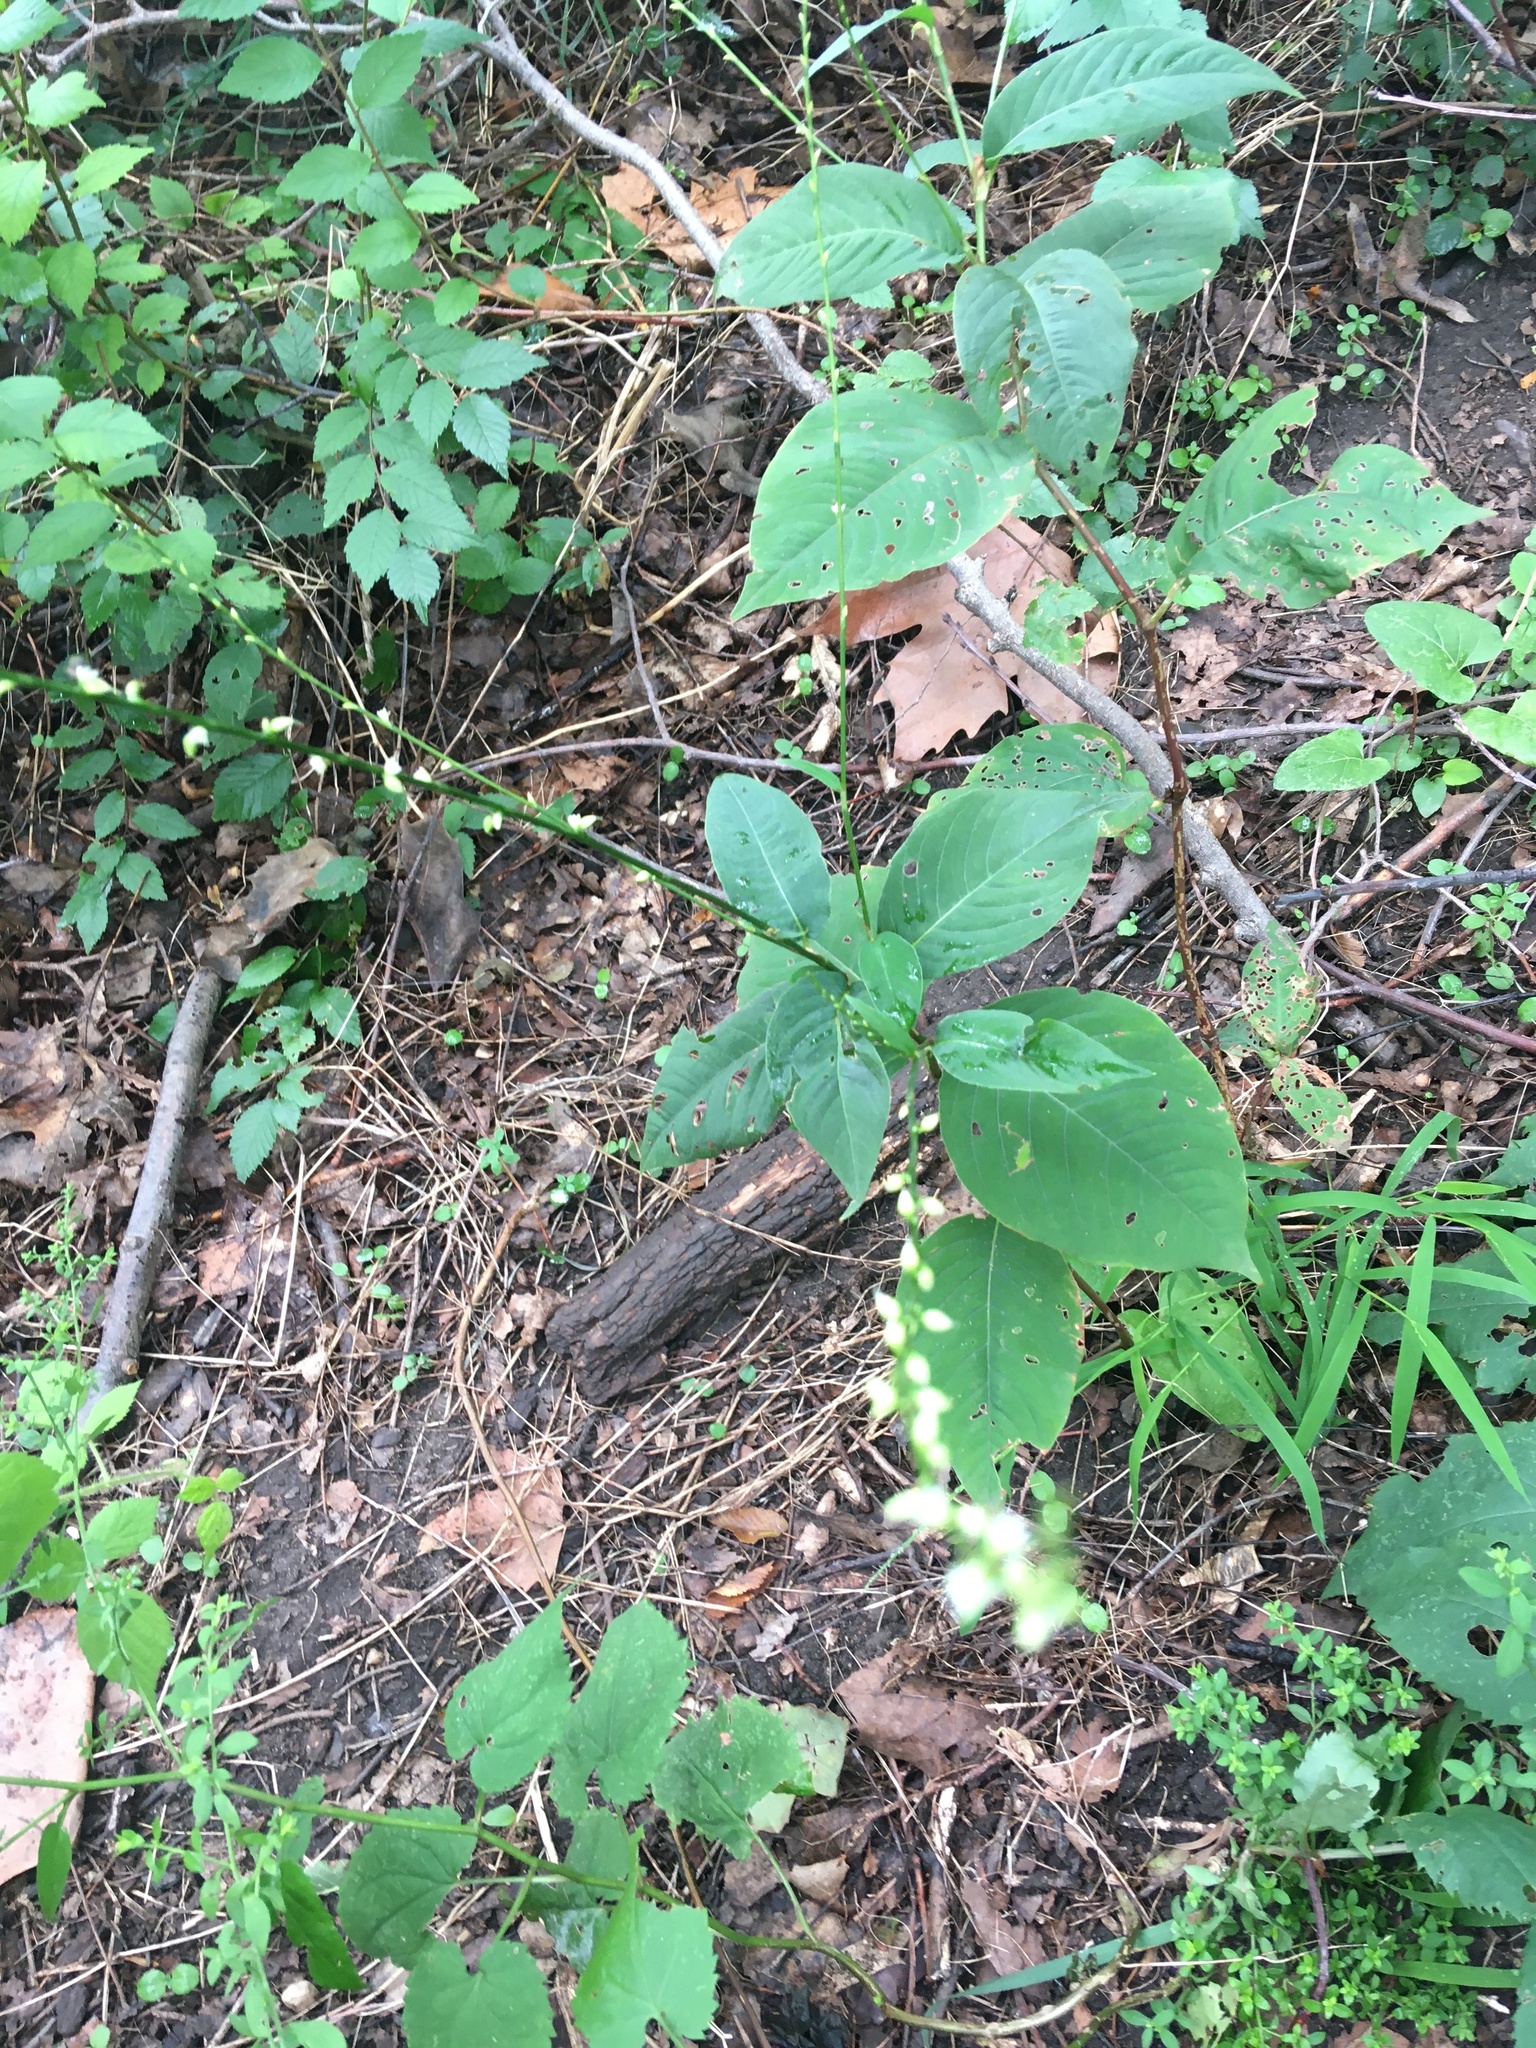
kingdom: Plantae
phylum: Tracheophyta
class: Magnoliopsida
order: Caryophyllales
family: Polygonaceae
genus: Persicaria
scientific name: Persicaria virginiana
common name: Jumpseed
